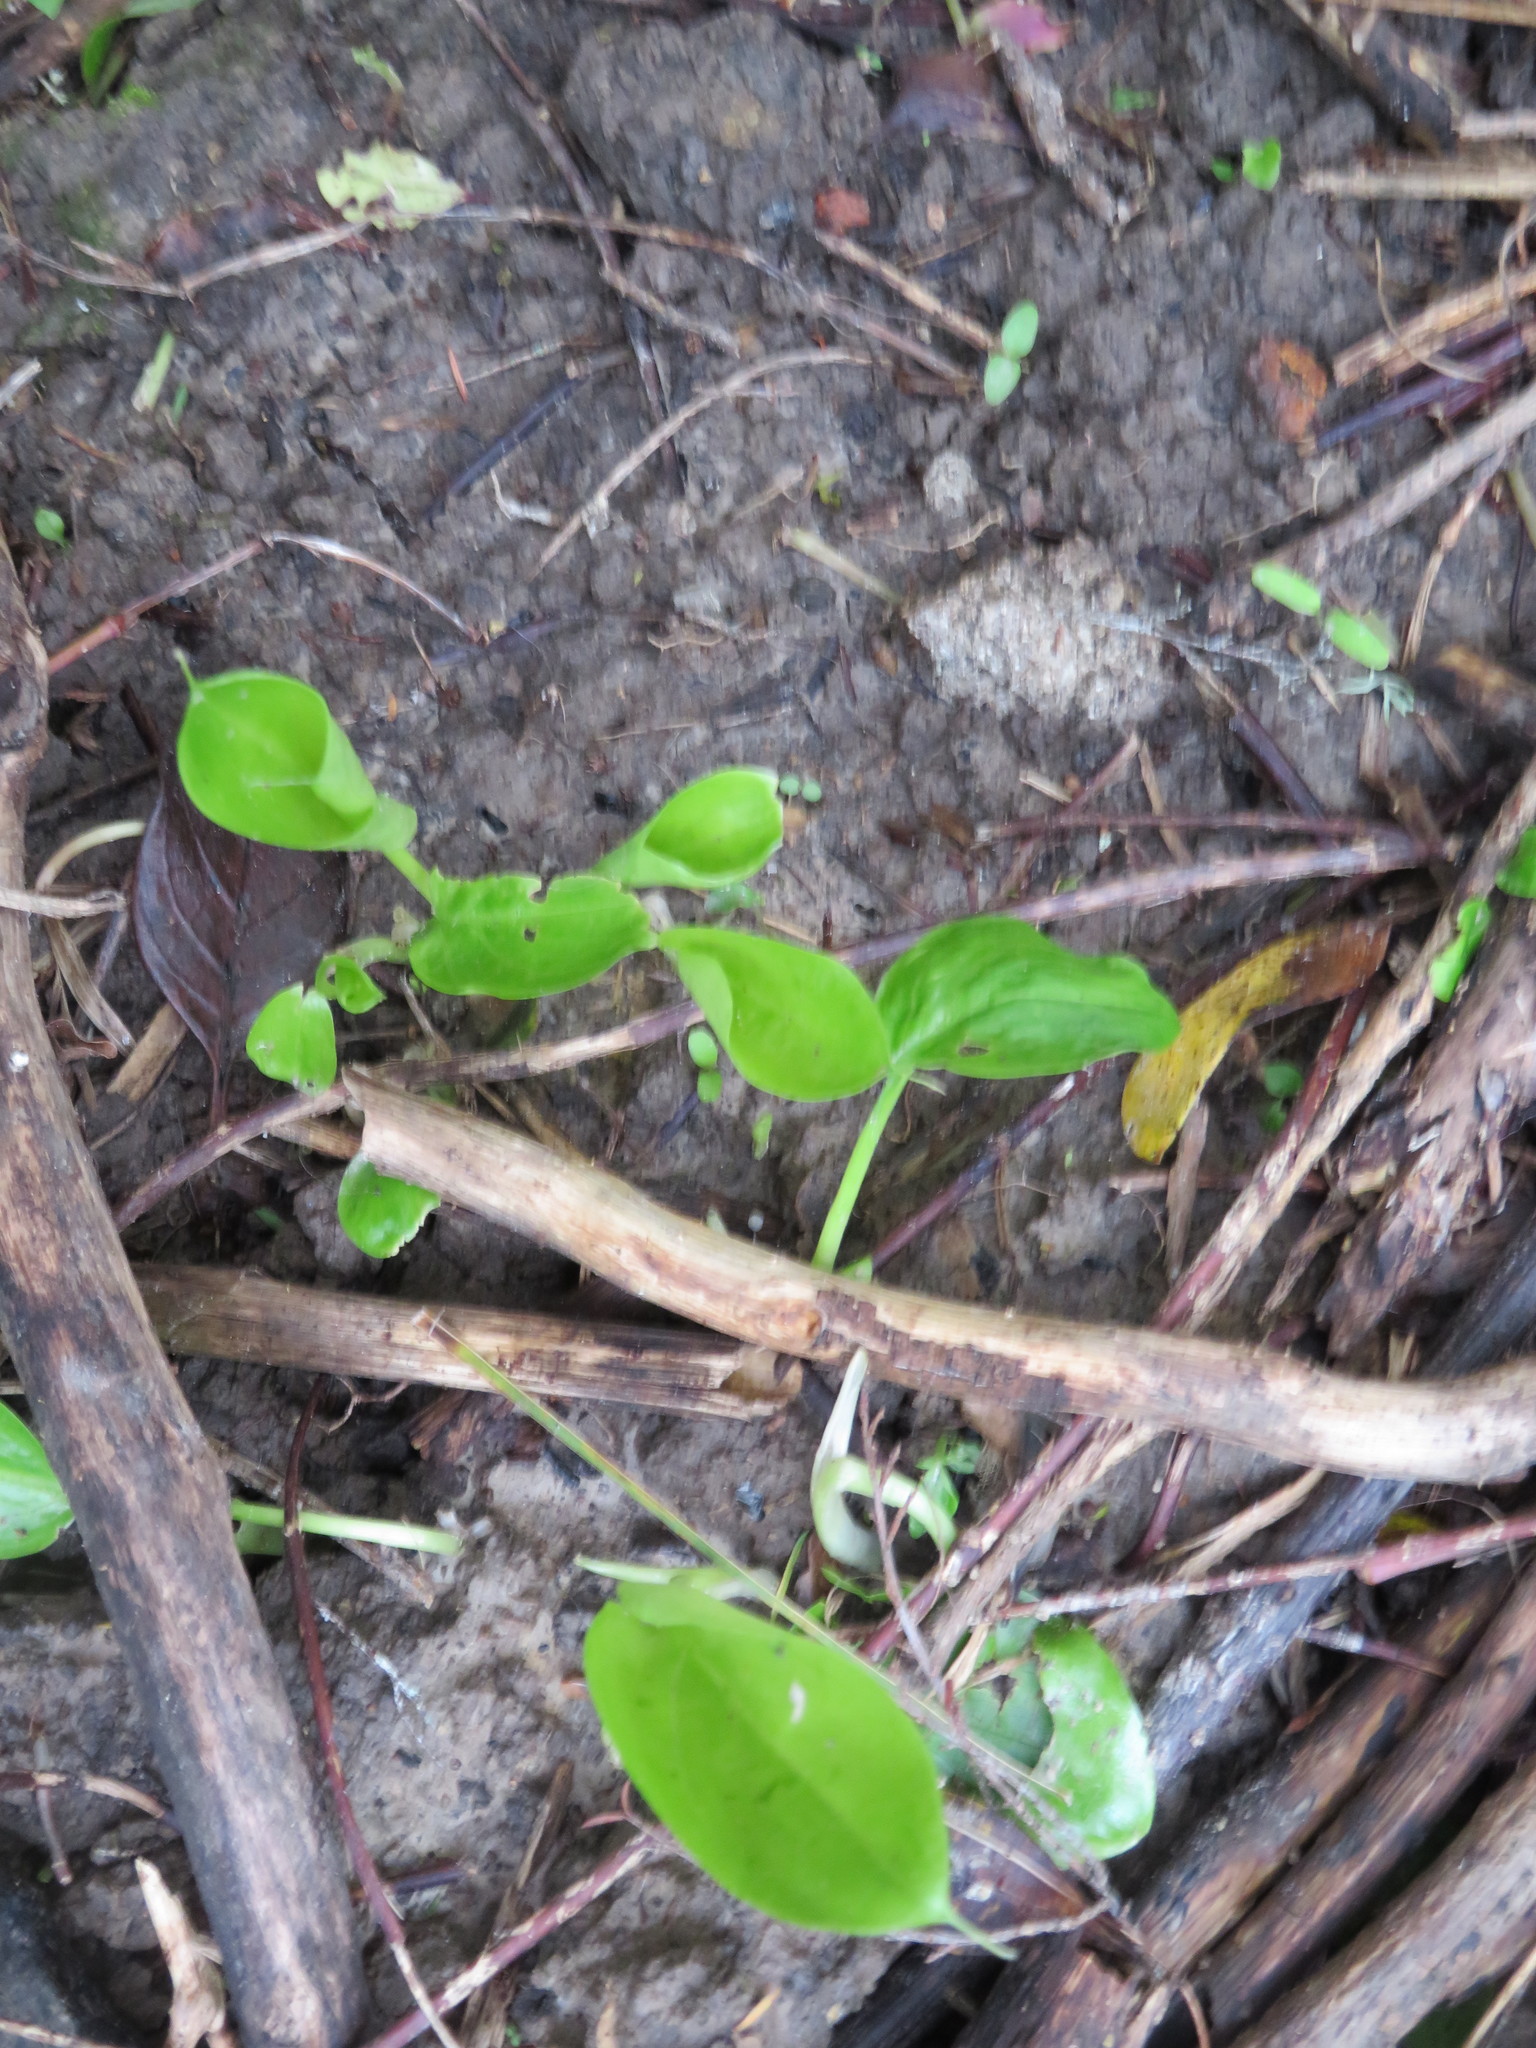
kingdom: Plantae
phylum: Tracheophyta
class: Magnoliopsida
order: Geraniales
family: Melianthaceae
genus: Melianthus
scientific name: Melianthus major
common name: Honey-flower
